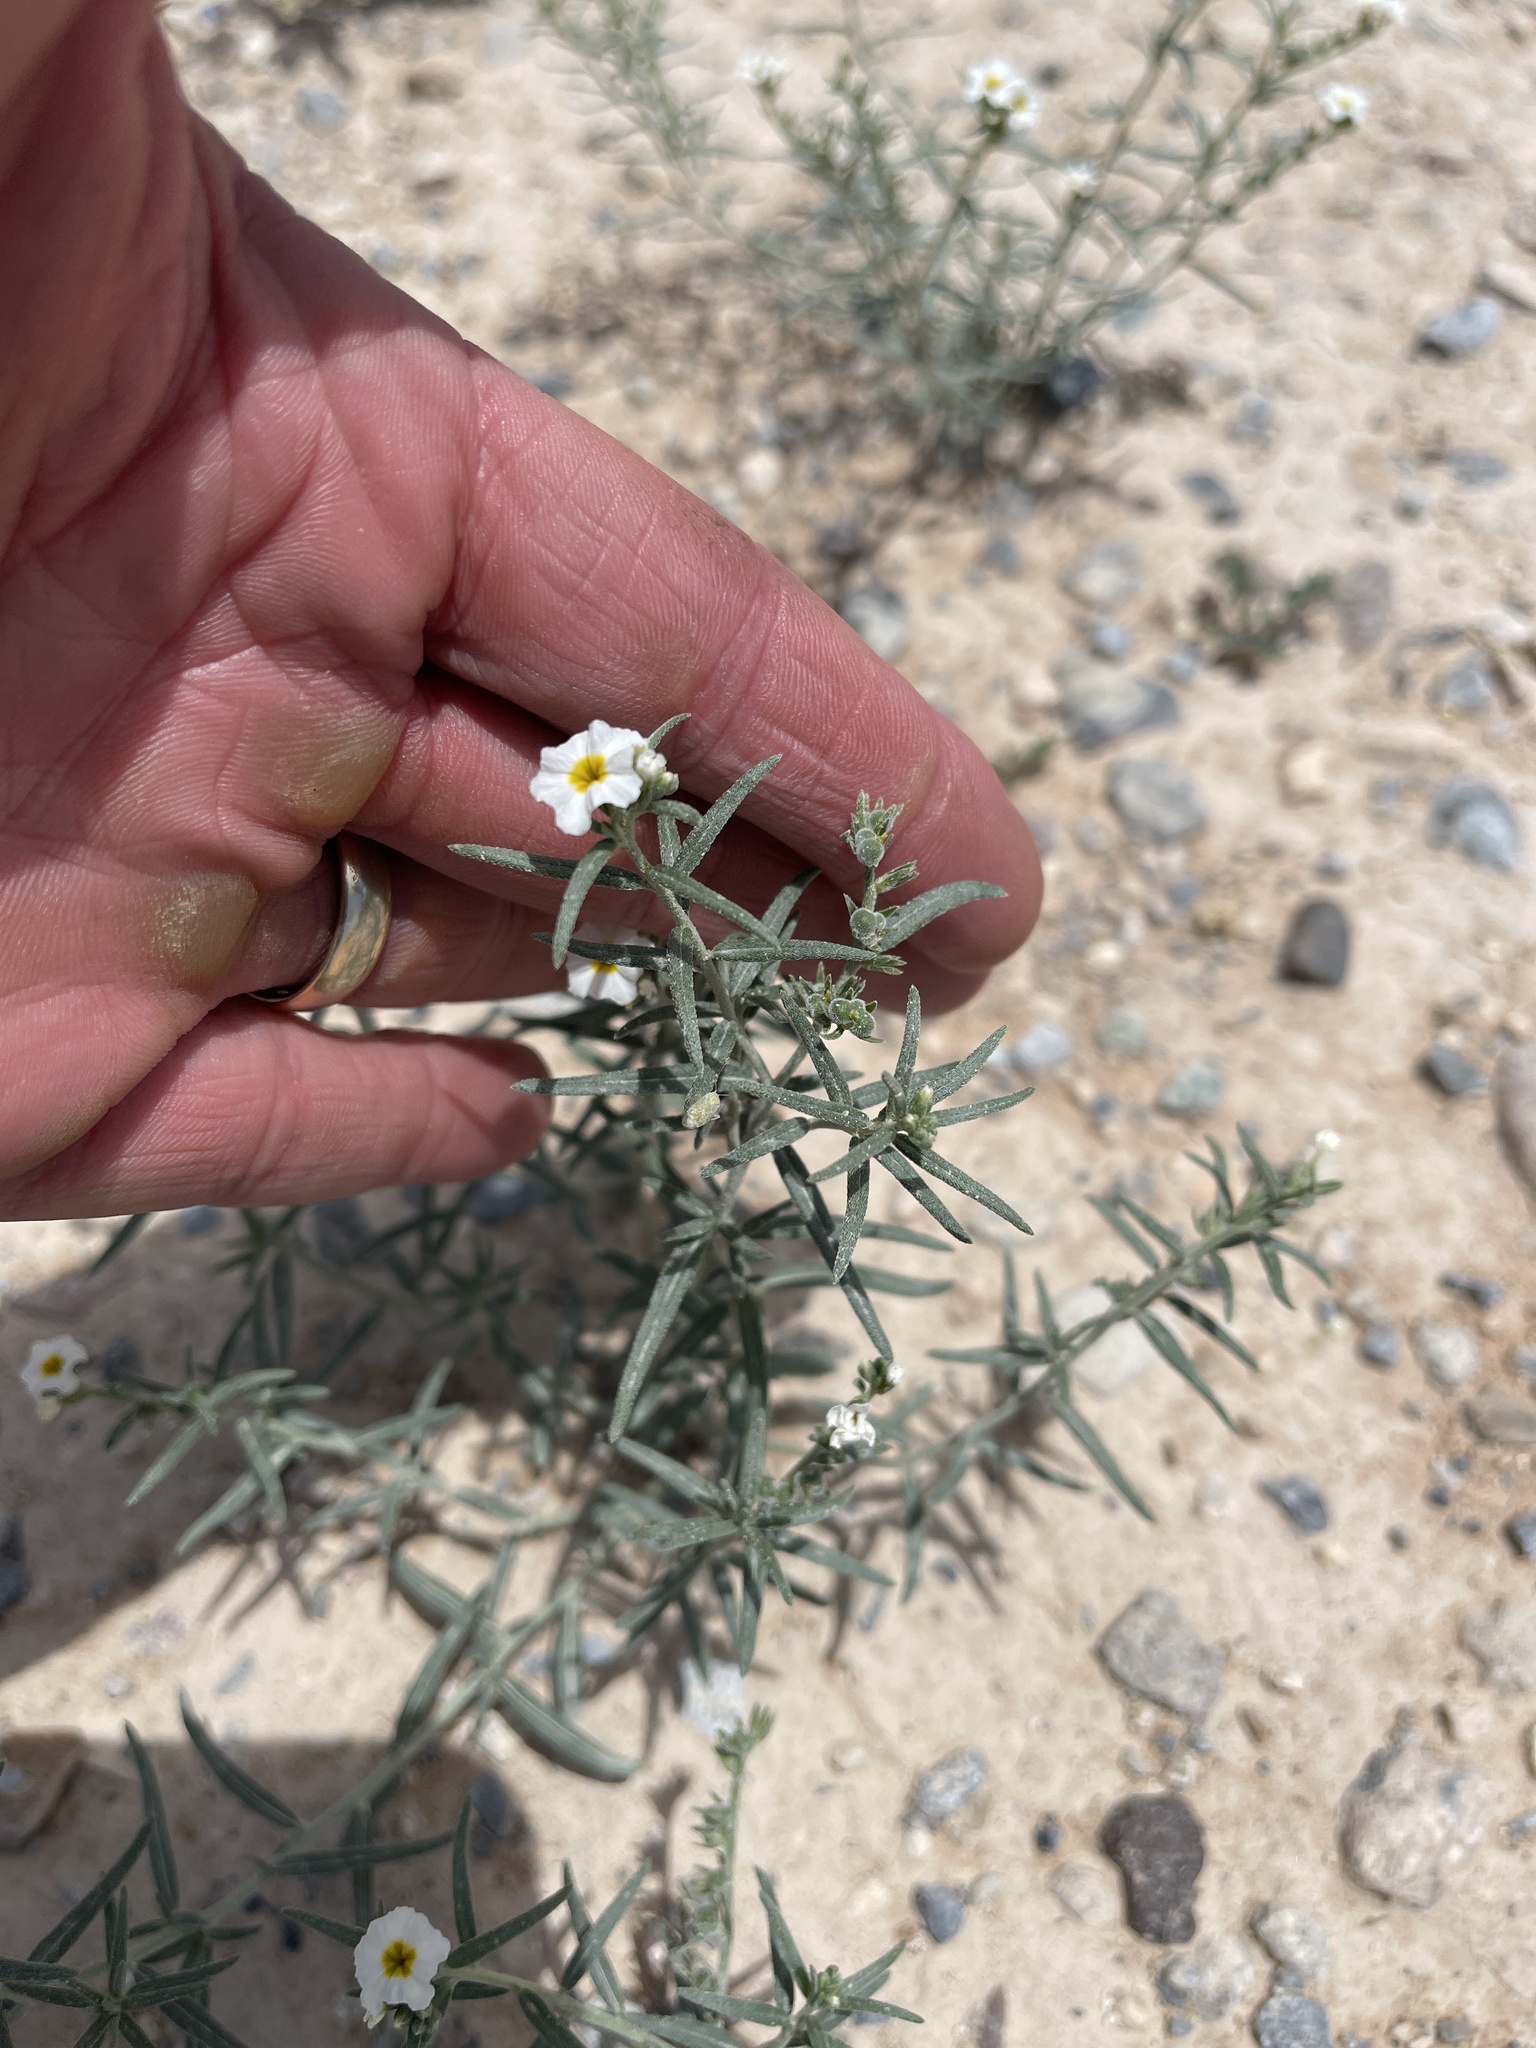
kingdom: Plantae
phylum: Tracheophyta
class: Magnoliopsida
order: Boraginales
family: Heliotropiaceae
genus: Euploca
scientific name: Euploca greggii
